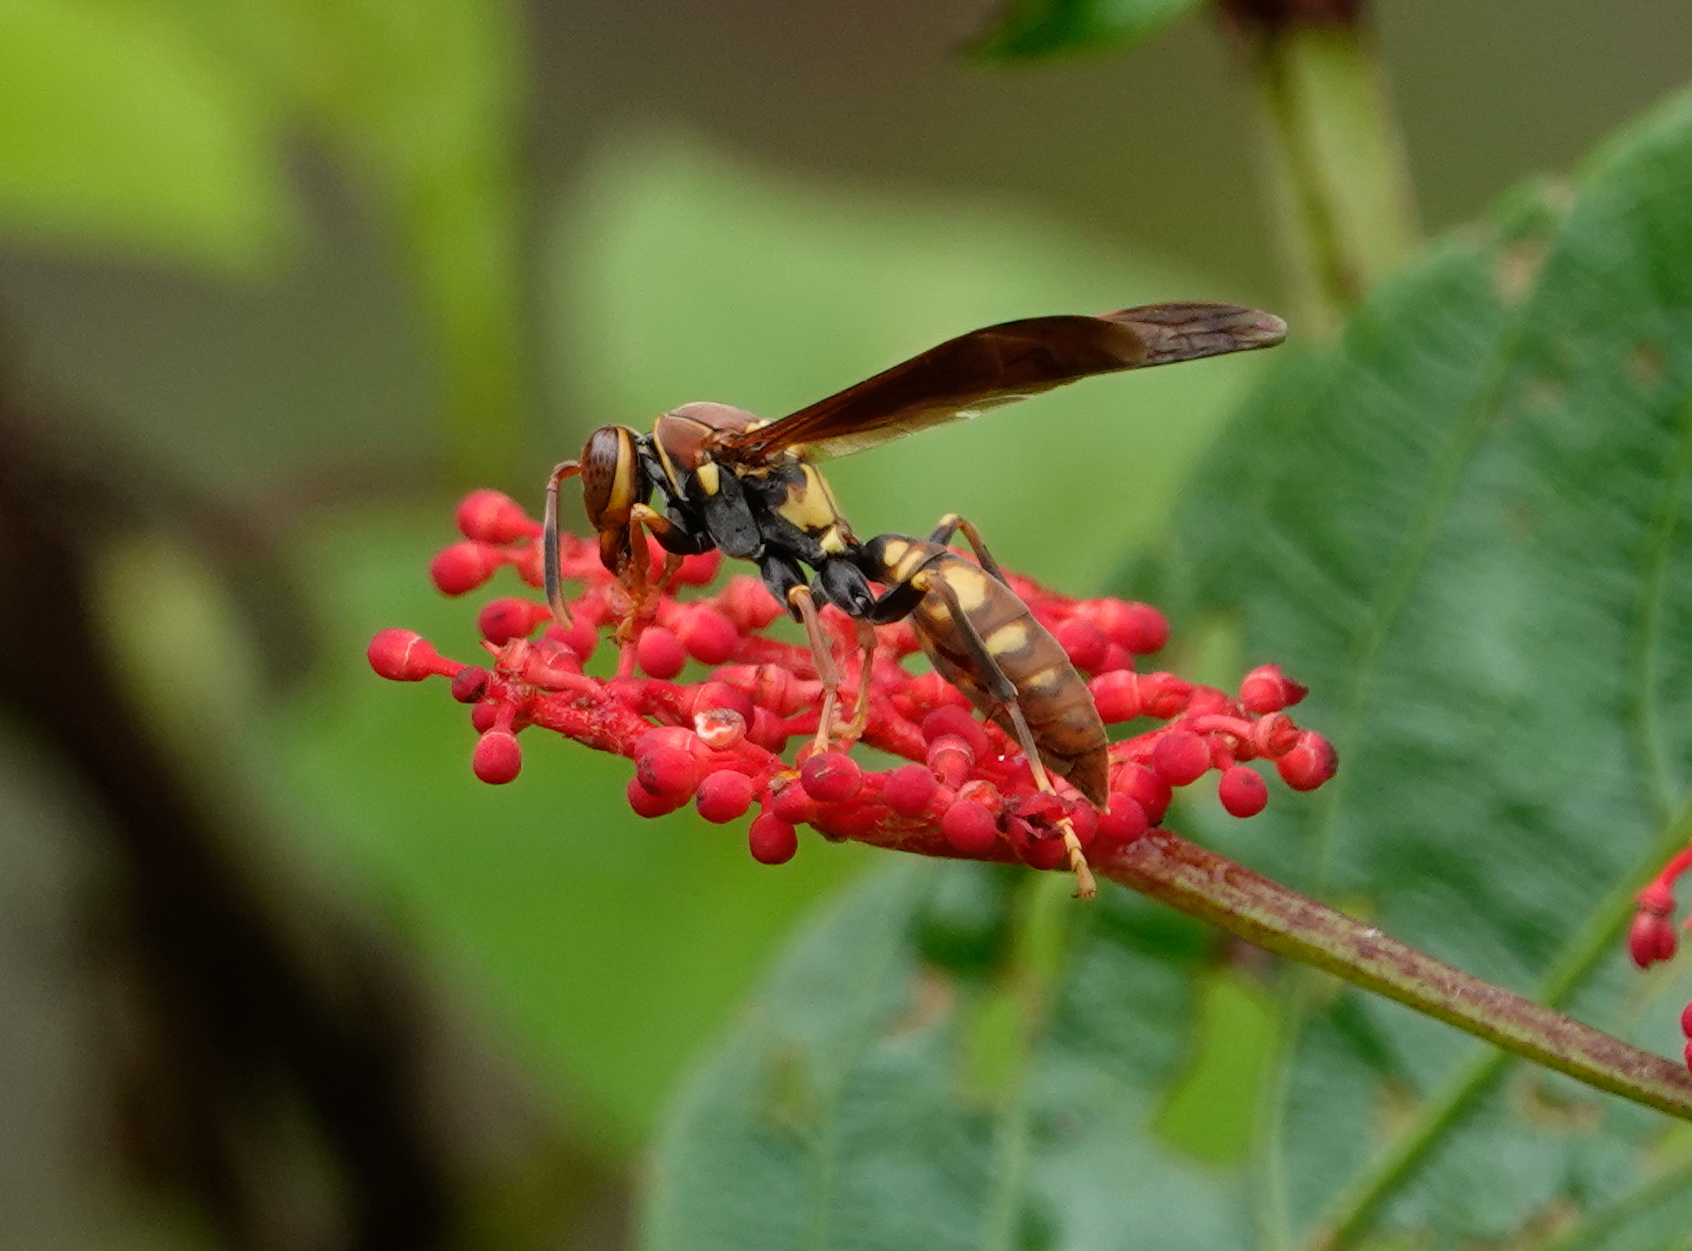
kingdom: Animalia
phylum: Arthropoda
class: Insecta
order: Hymenoptera
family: Eumenidae
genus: Polistes
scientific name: Polistes versicolor
